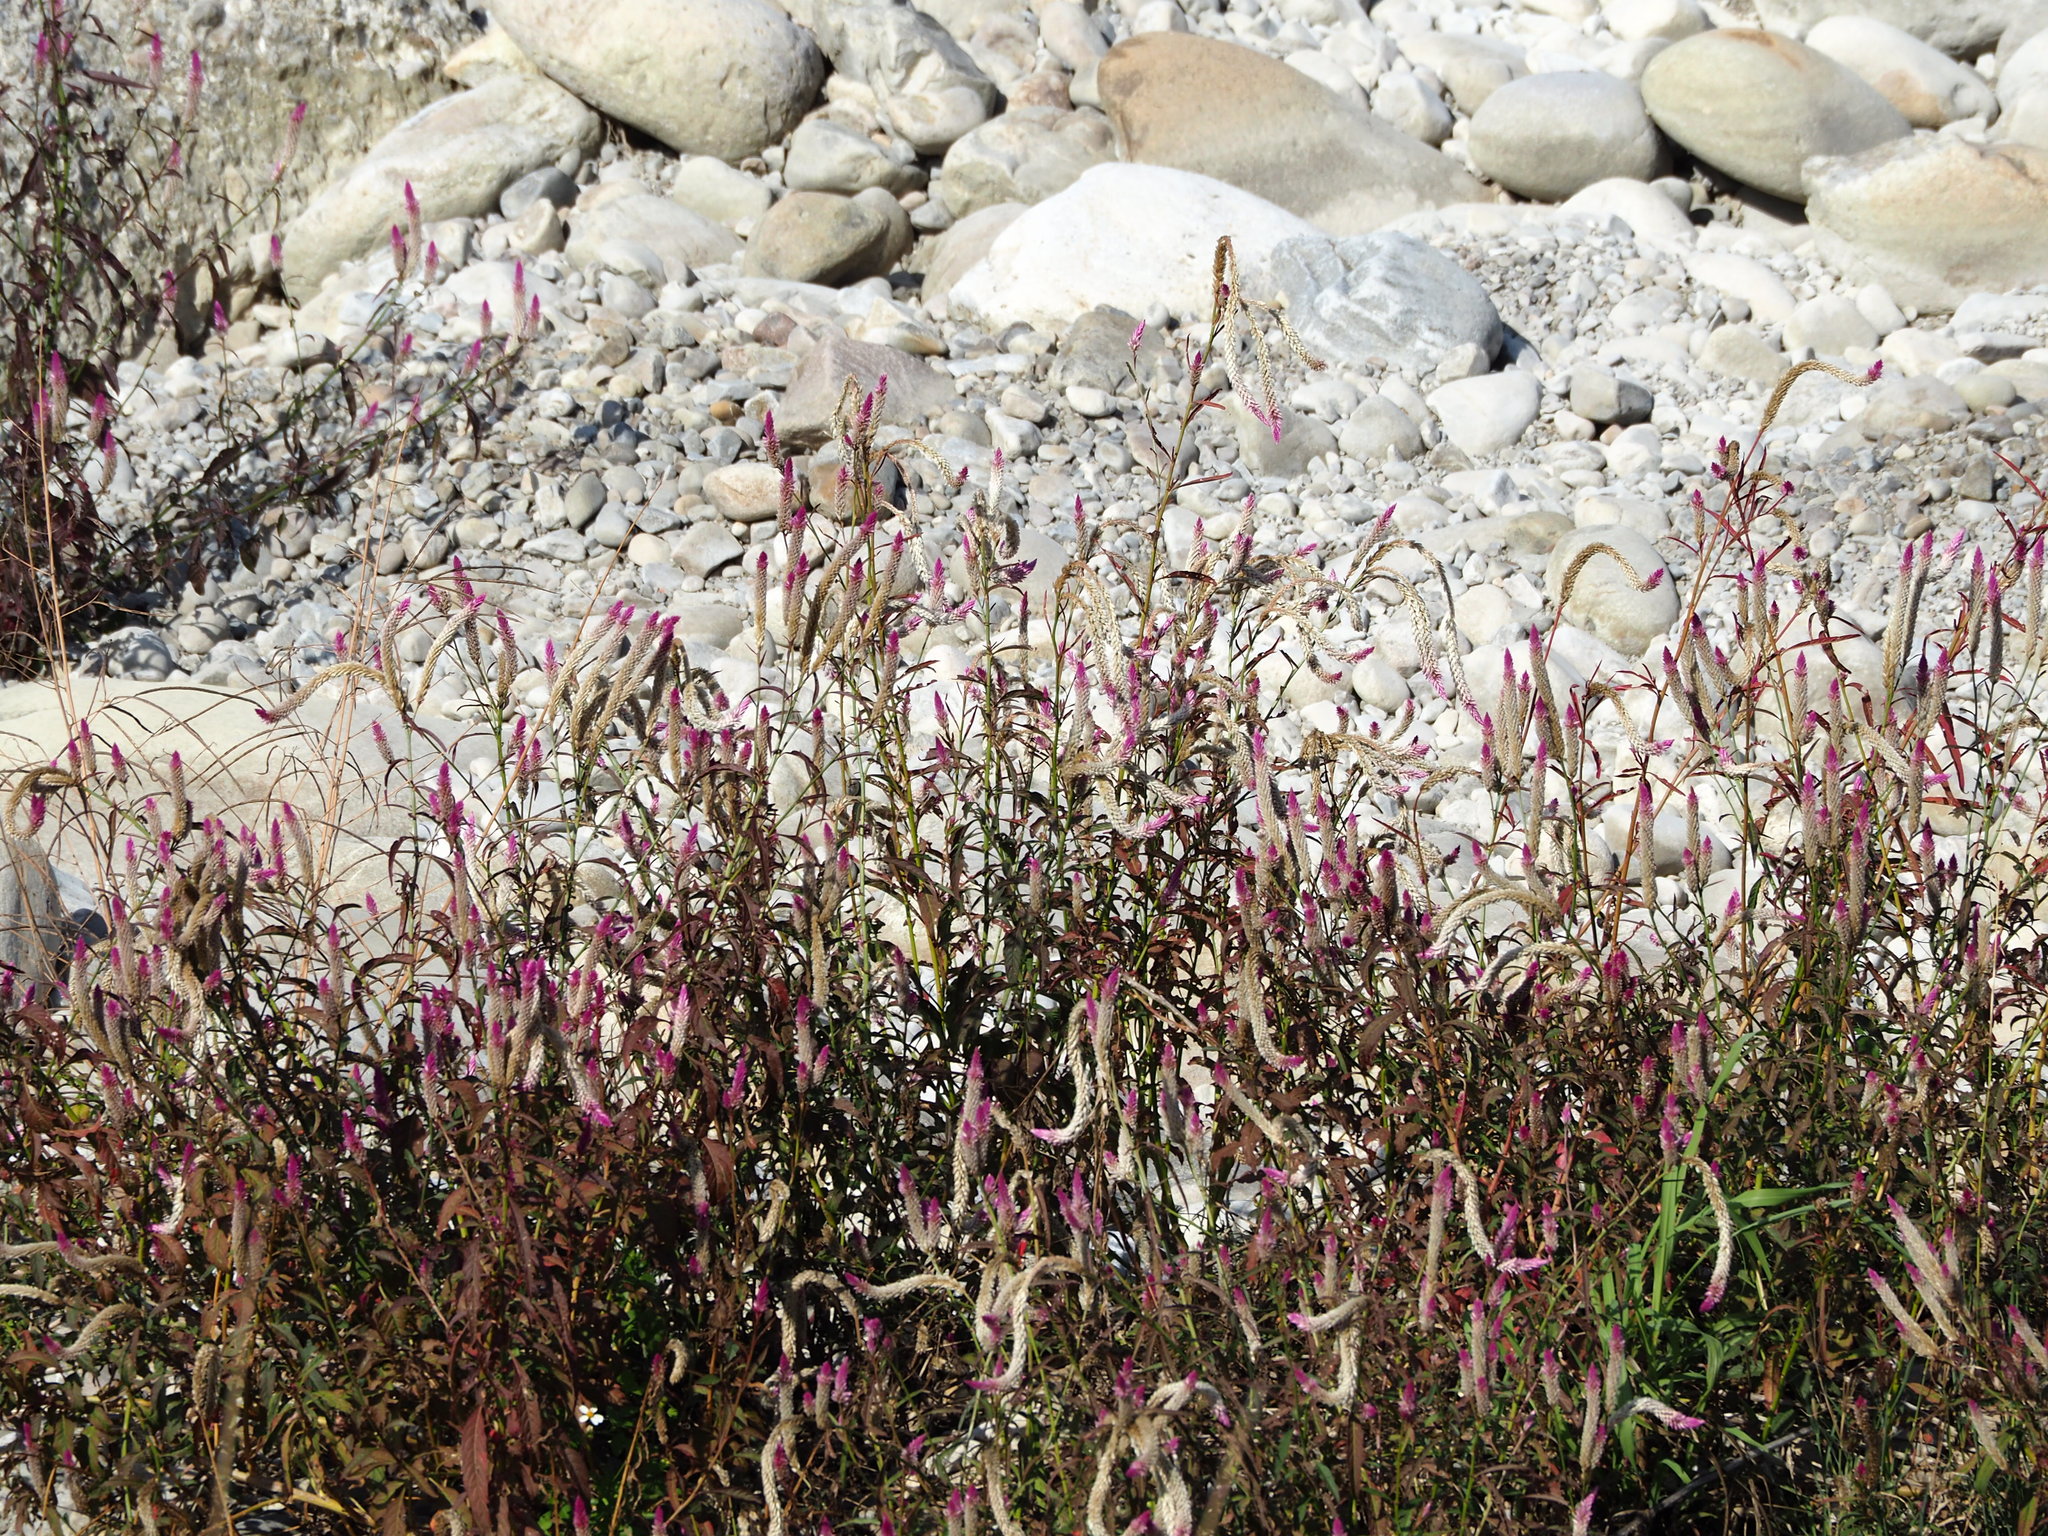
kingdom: Plantae
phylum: Tracheophyta
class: Magnoliopsida
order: Caryophyllales
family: Amaranthaceae
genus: Celosia
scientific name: Celosia argentea
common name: Feather cockscomb
